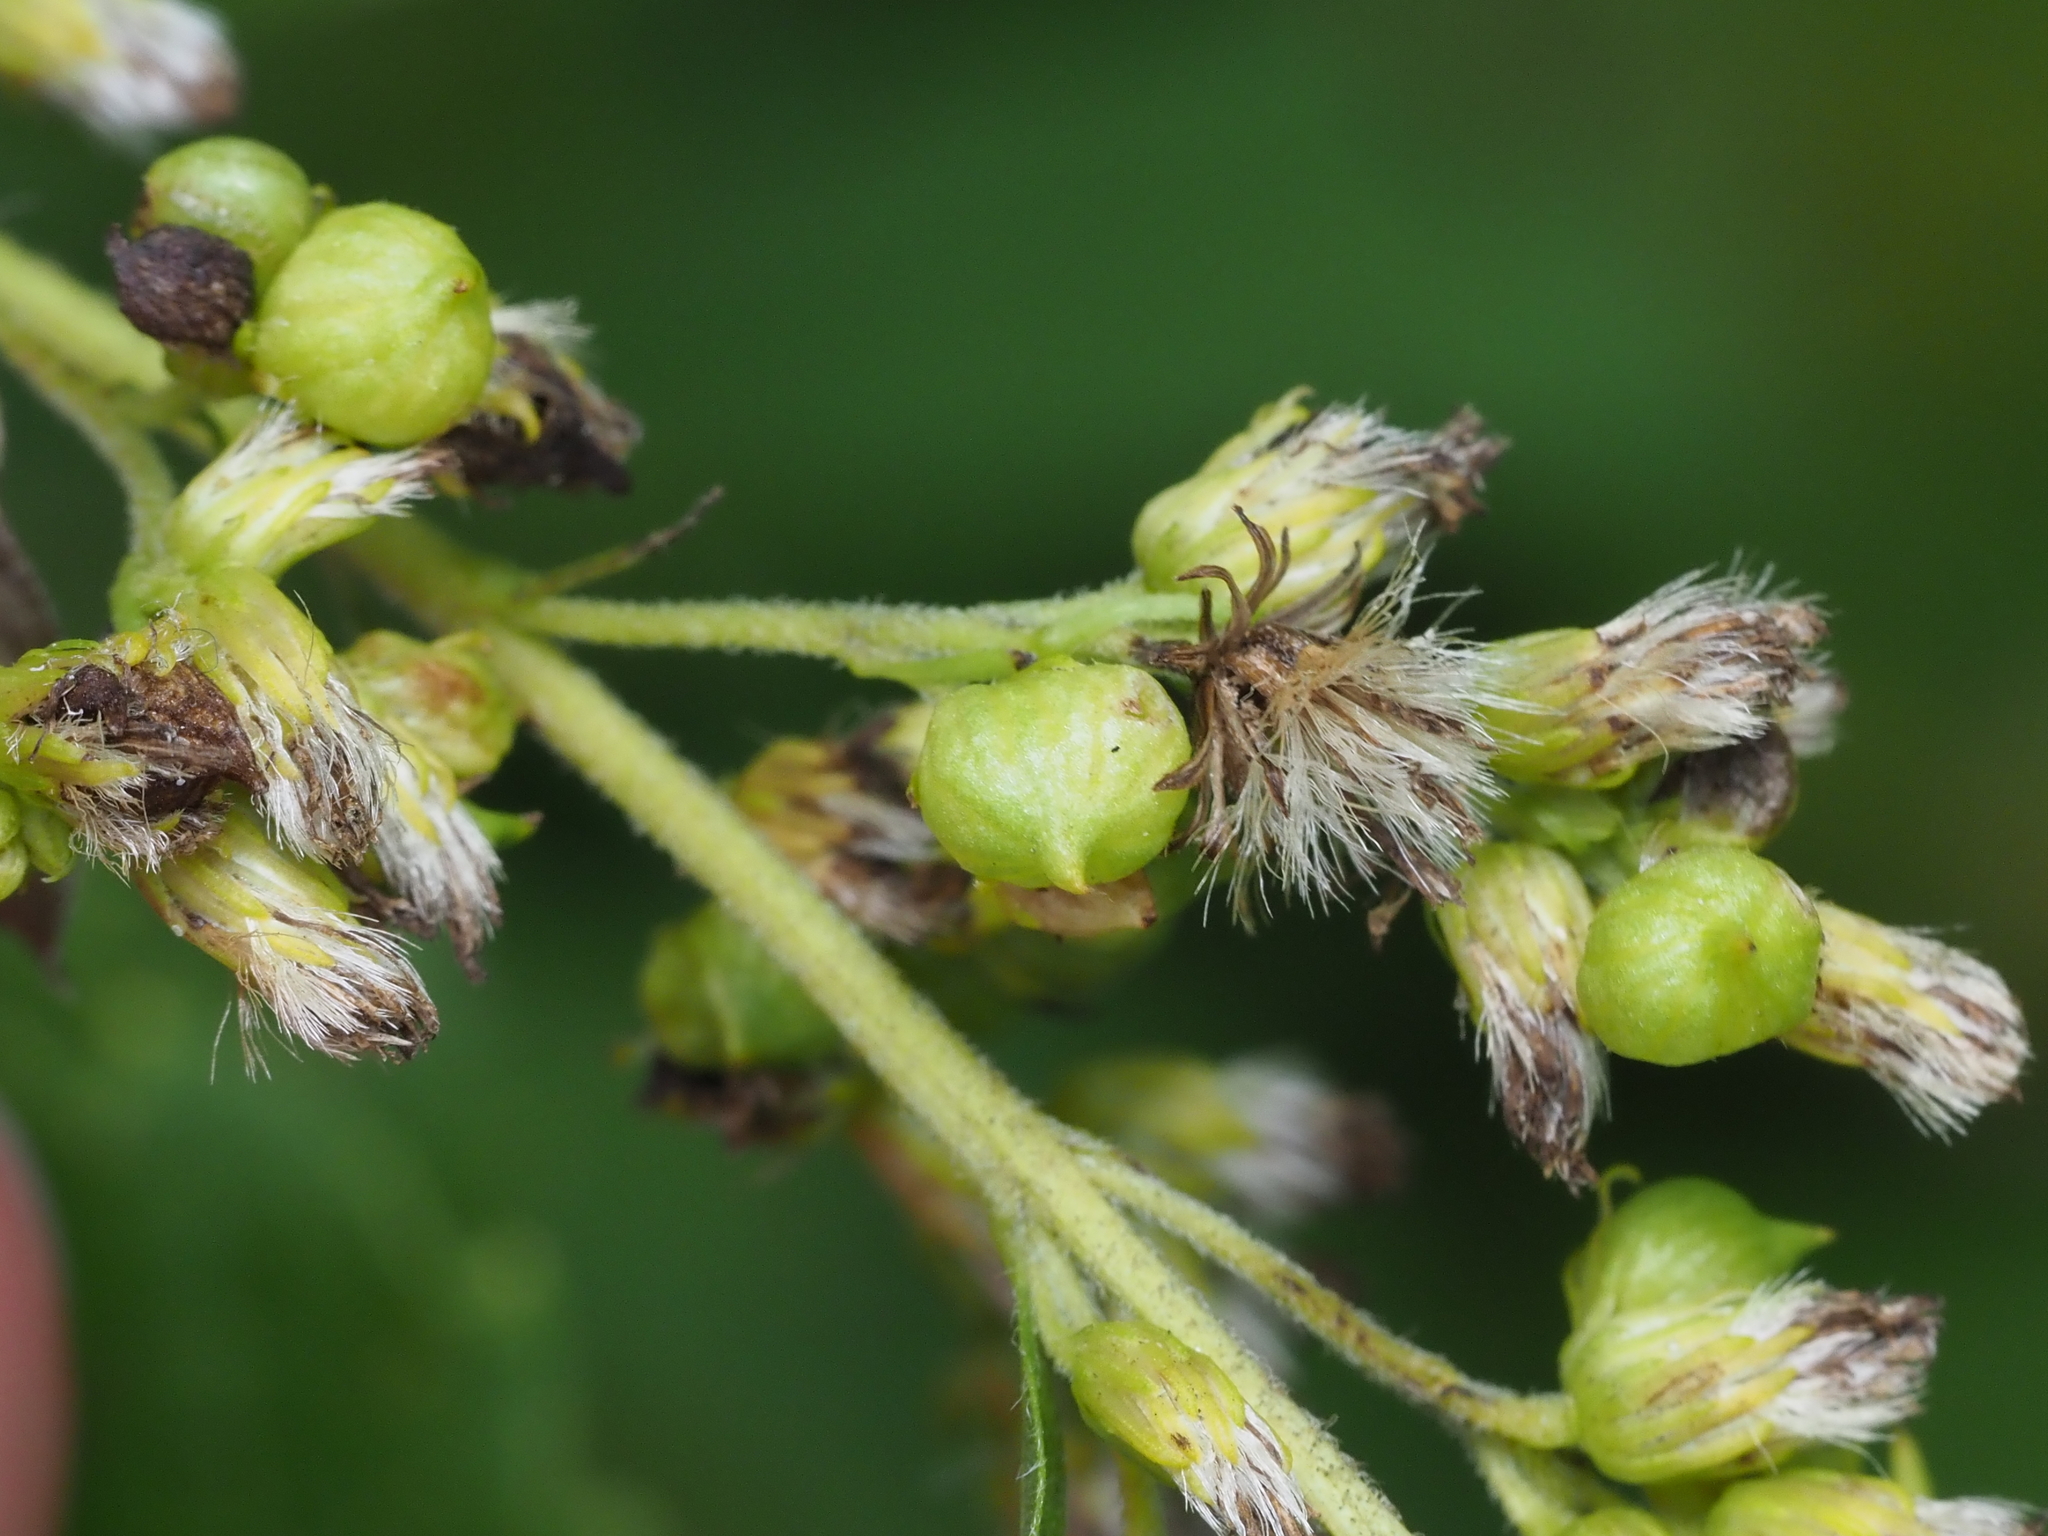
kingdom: Animalia
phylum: Arthropoda
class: Insecta
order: Diptera
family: Cecidomyiidae
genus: Schizomyia
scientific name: Schizomyia racemicola
